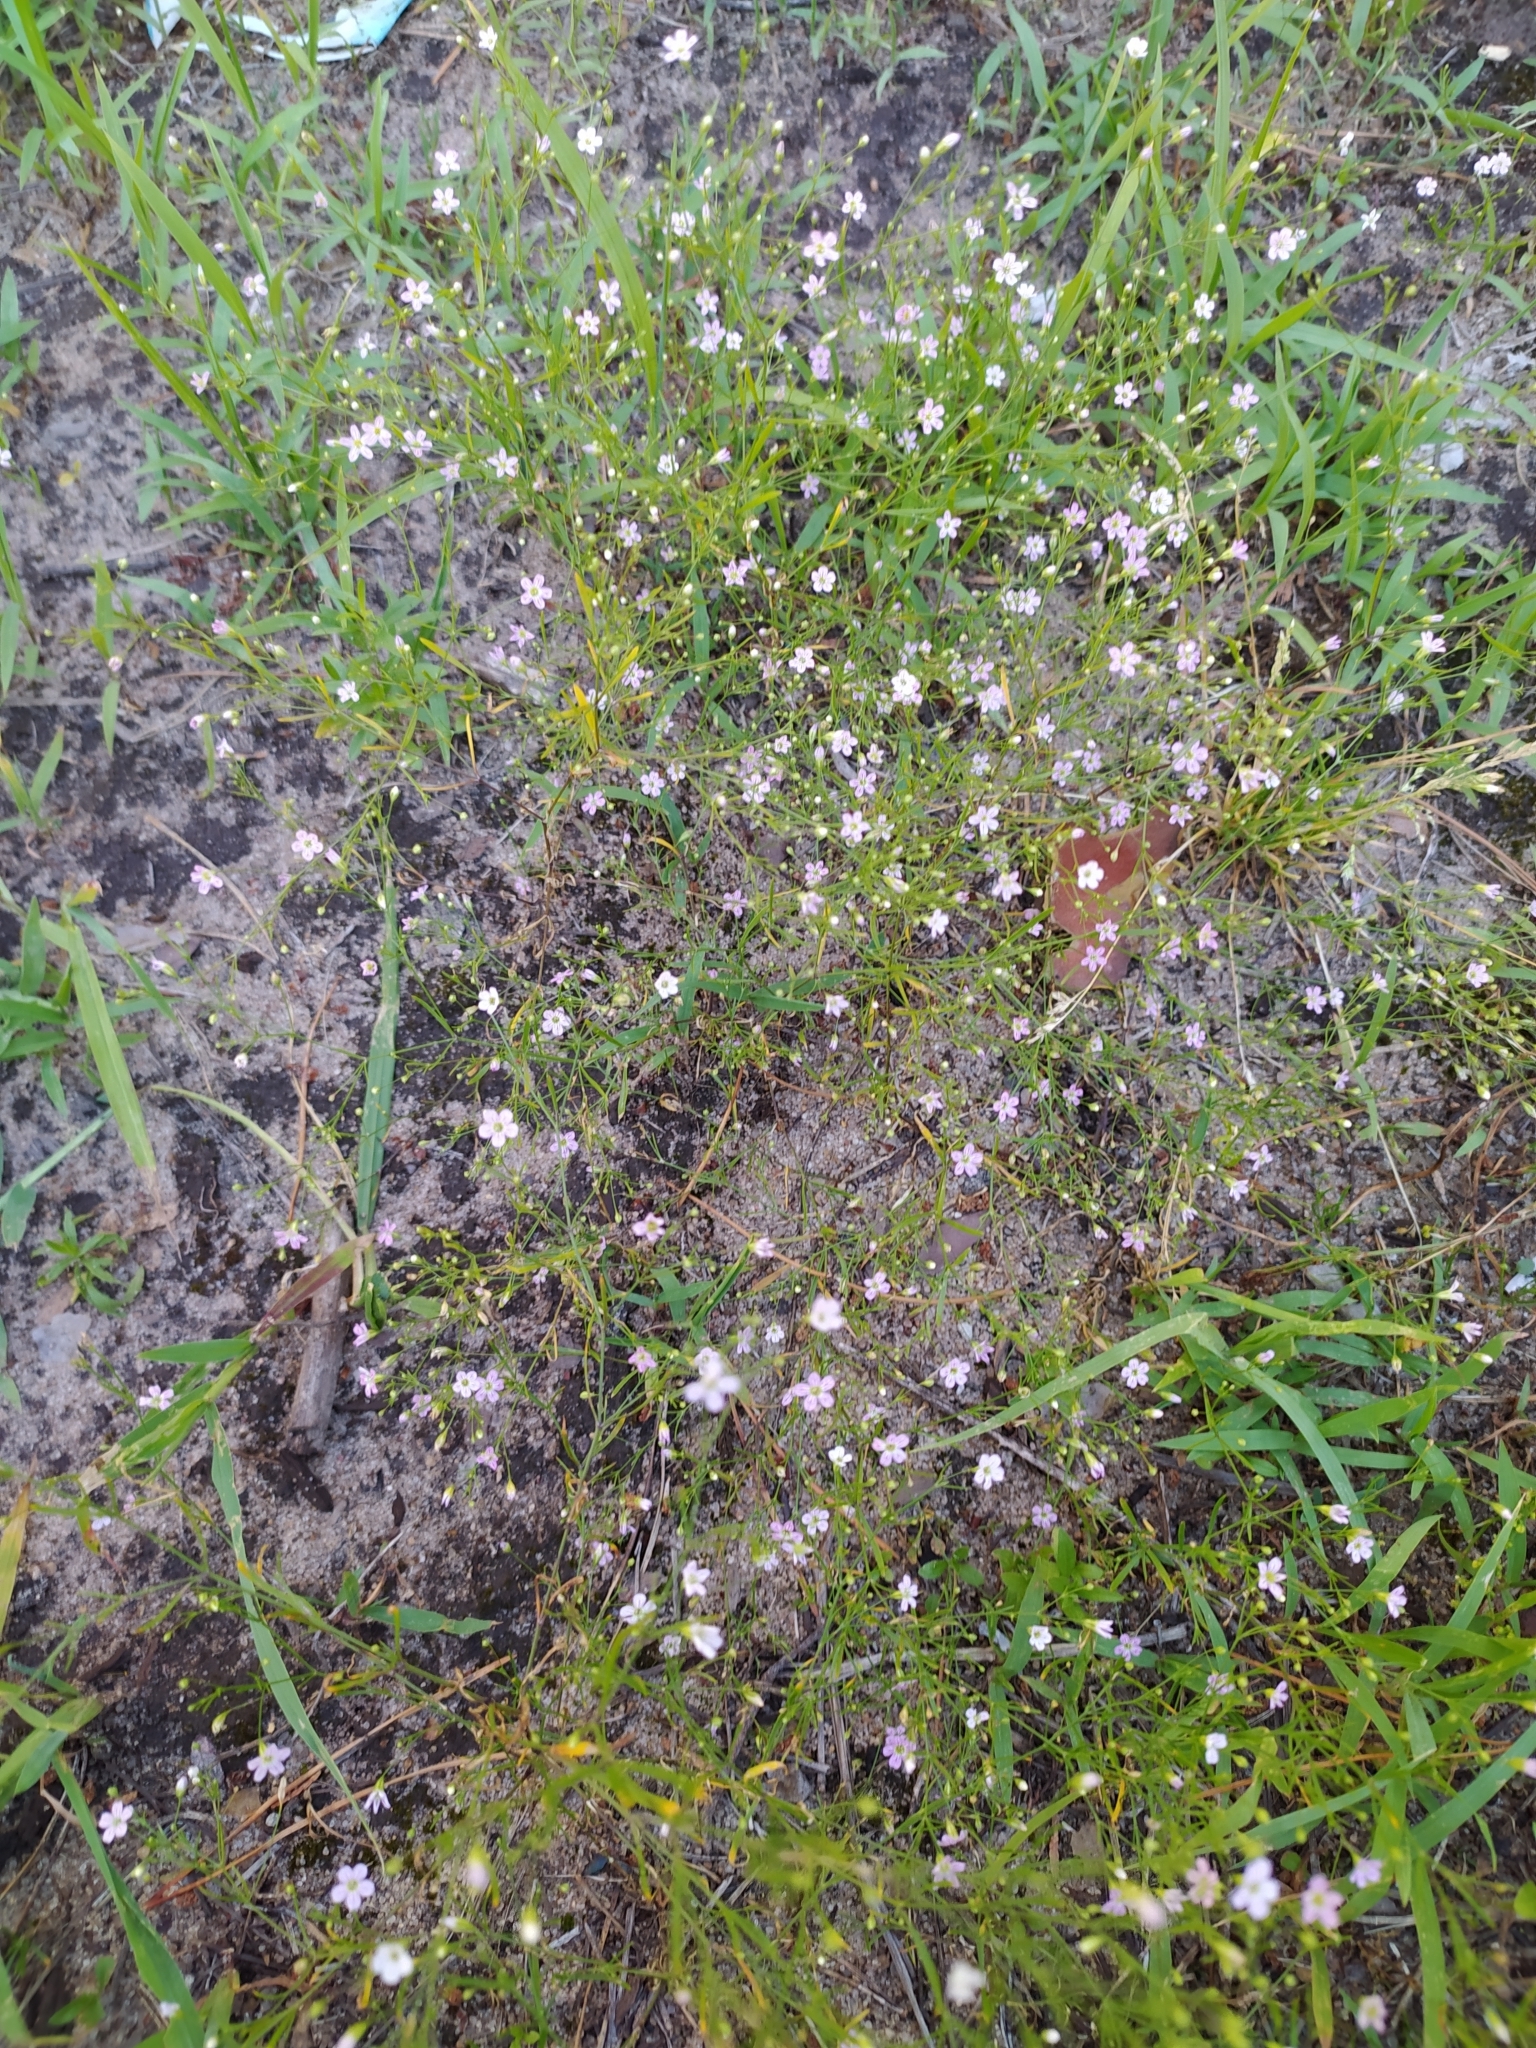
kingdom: Plantae
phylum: Tracheophyta
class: Magnoliopsida
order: Caryophyllales
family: Caryophyllaceae
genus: Psammophiliella
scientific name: Psammophiliella muralis
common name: Cushion baby's-breath
